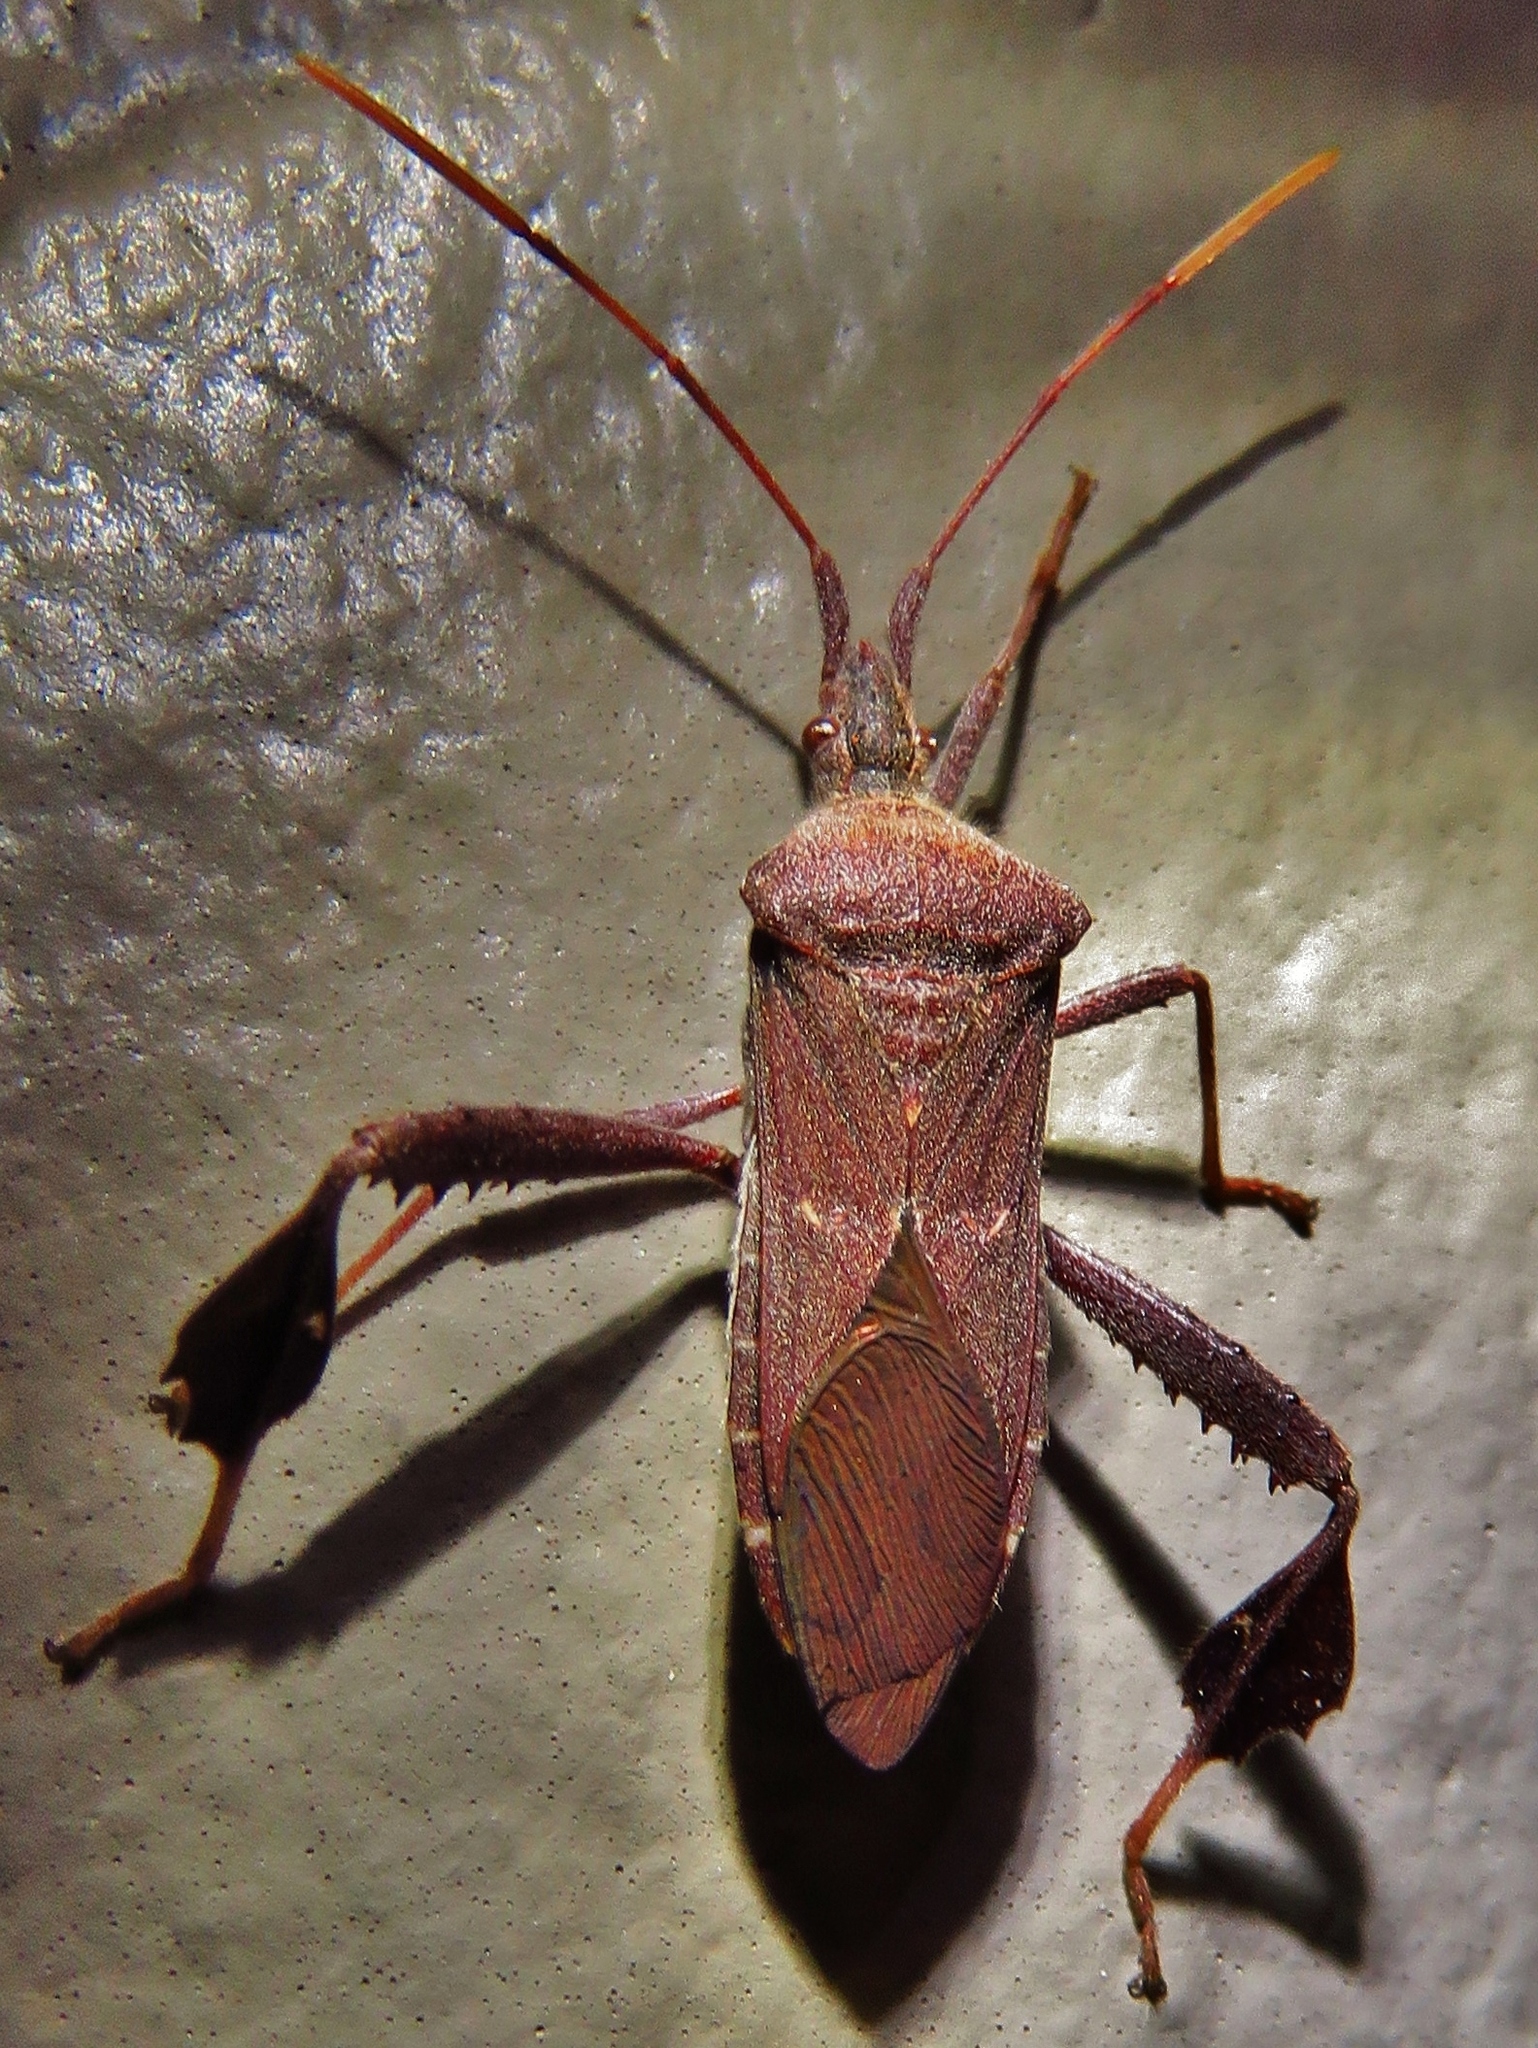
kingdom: Animalia
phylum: Arthropoda
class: Insecta
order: Hemiptera
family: Coreidae
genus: Leptoglossus
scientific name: Leptoglossus oppositus
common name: Northern leaf-footed bug
